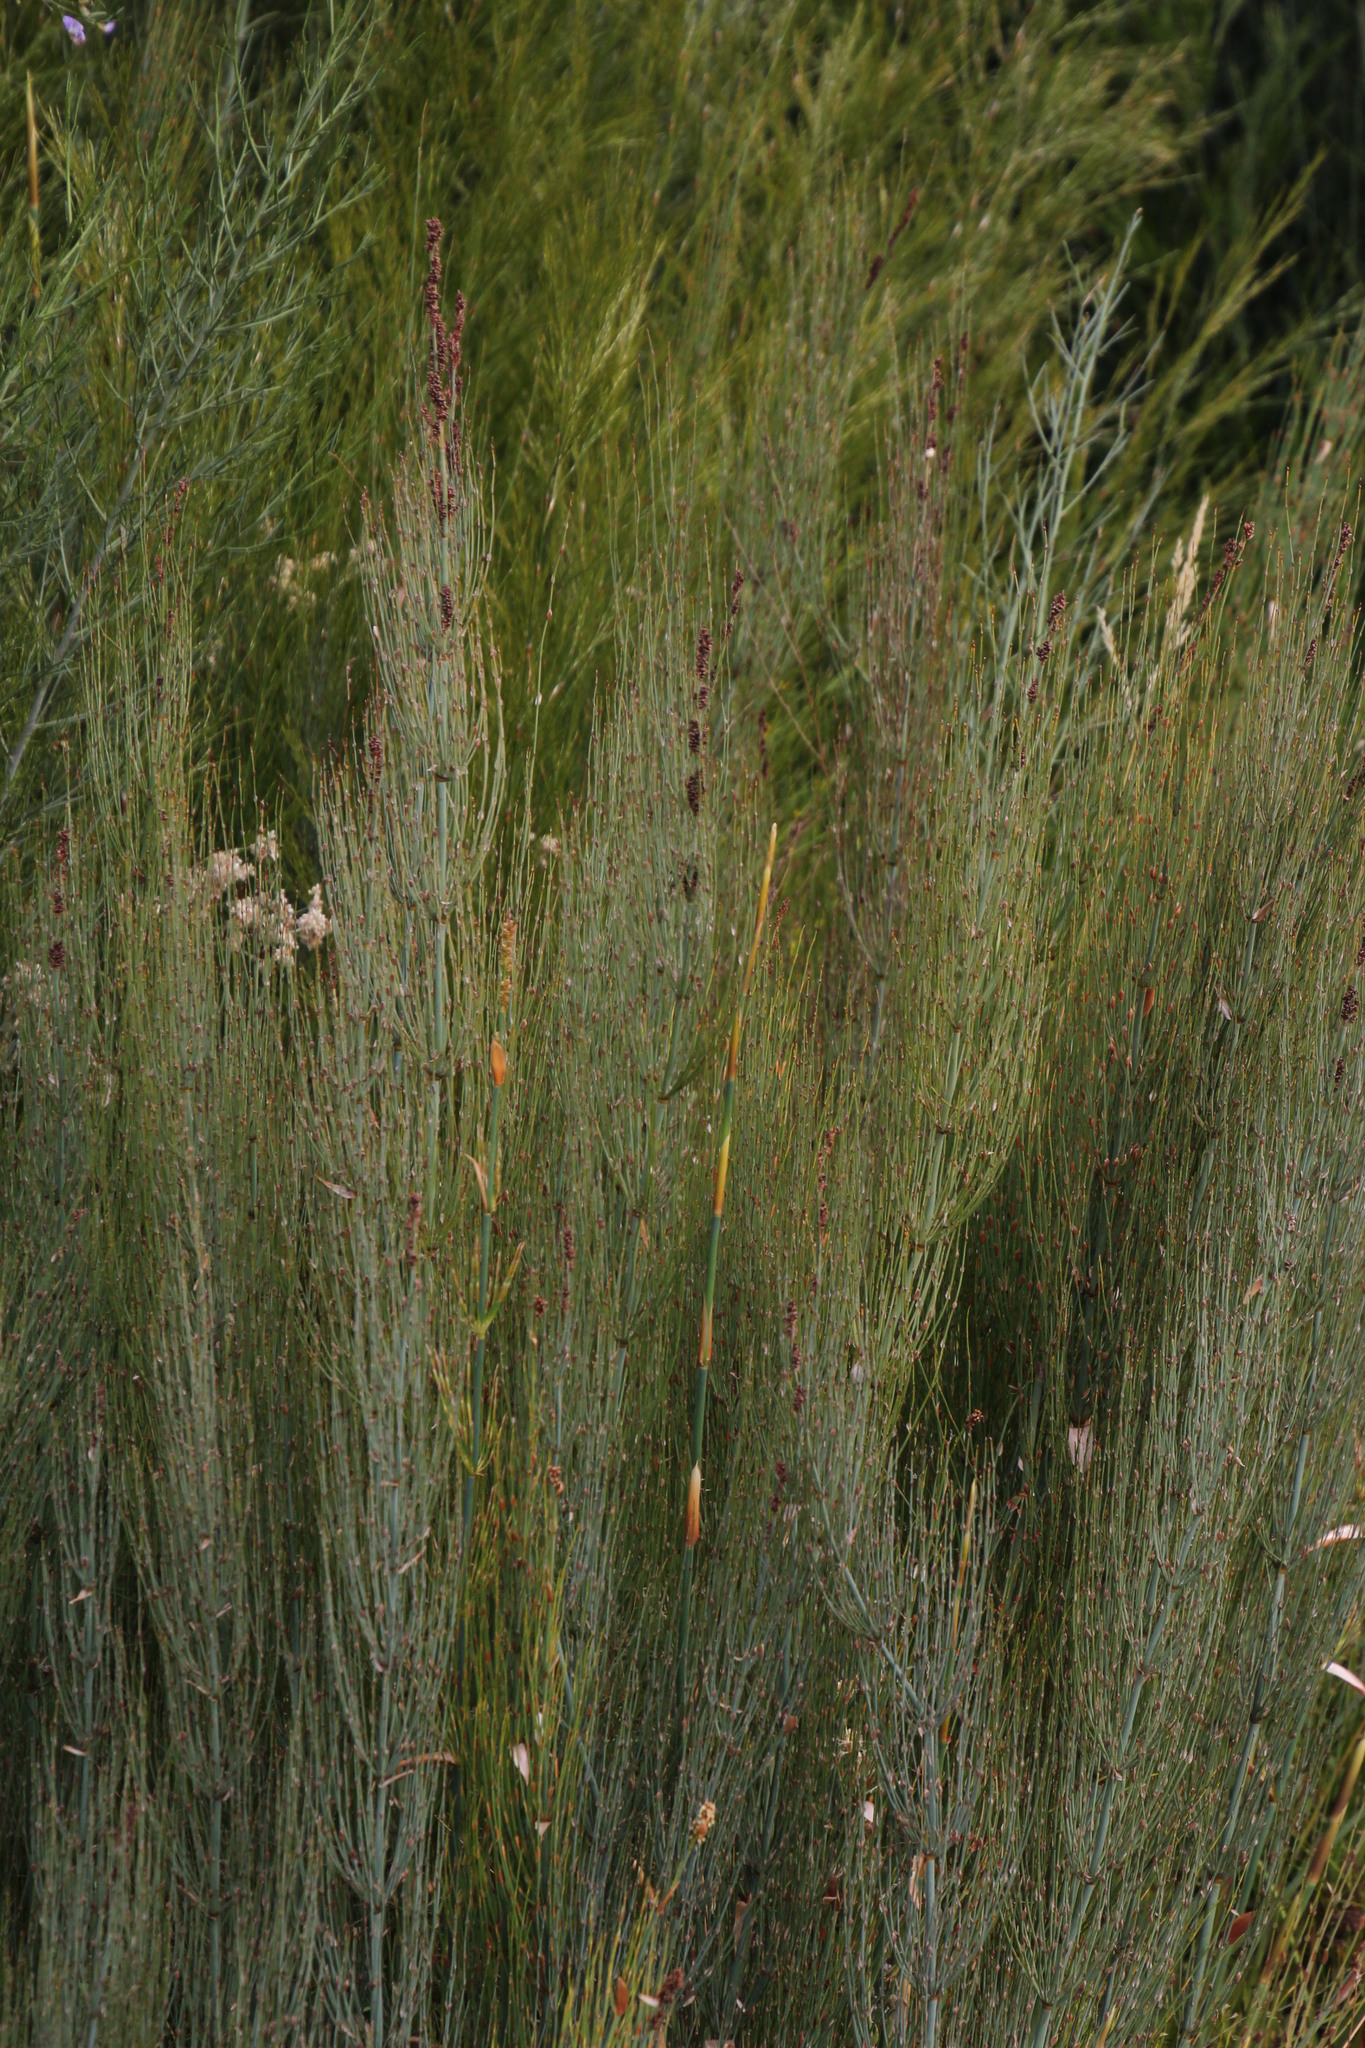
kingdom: Plantae
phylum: Tracheophyta
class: Liliopsida
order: Poales
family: Restionaceae
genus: Elegia
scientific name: Elegia capensis
